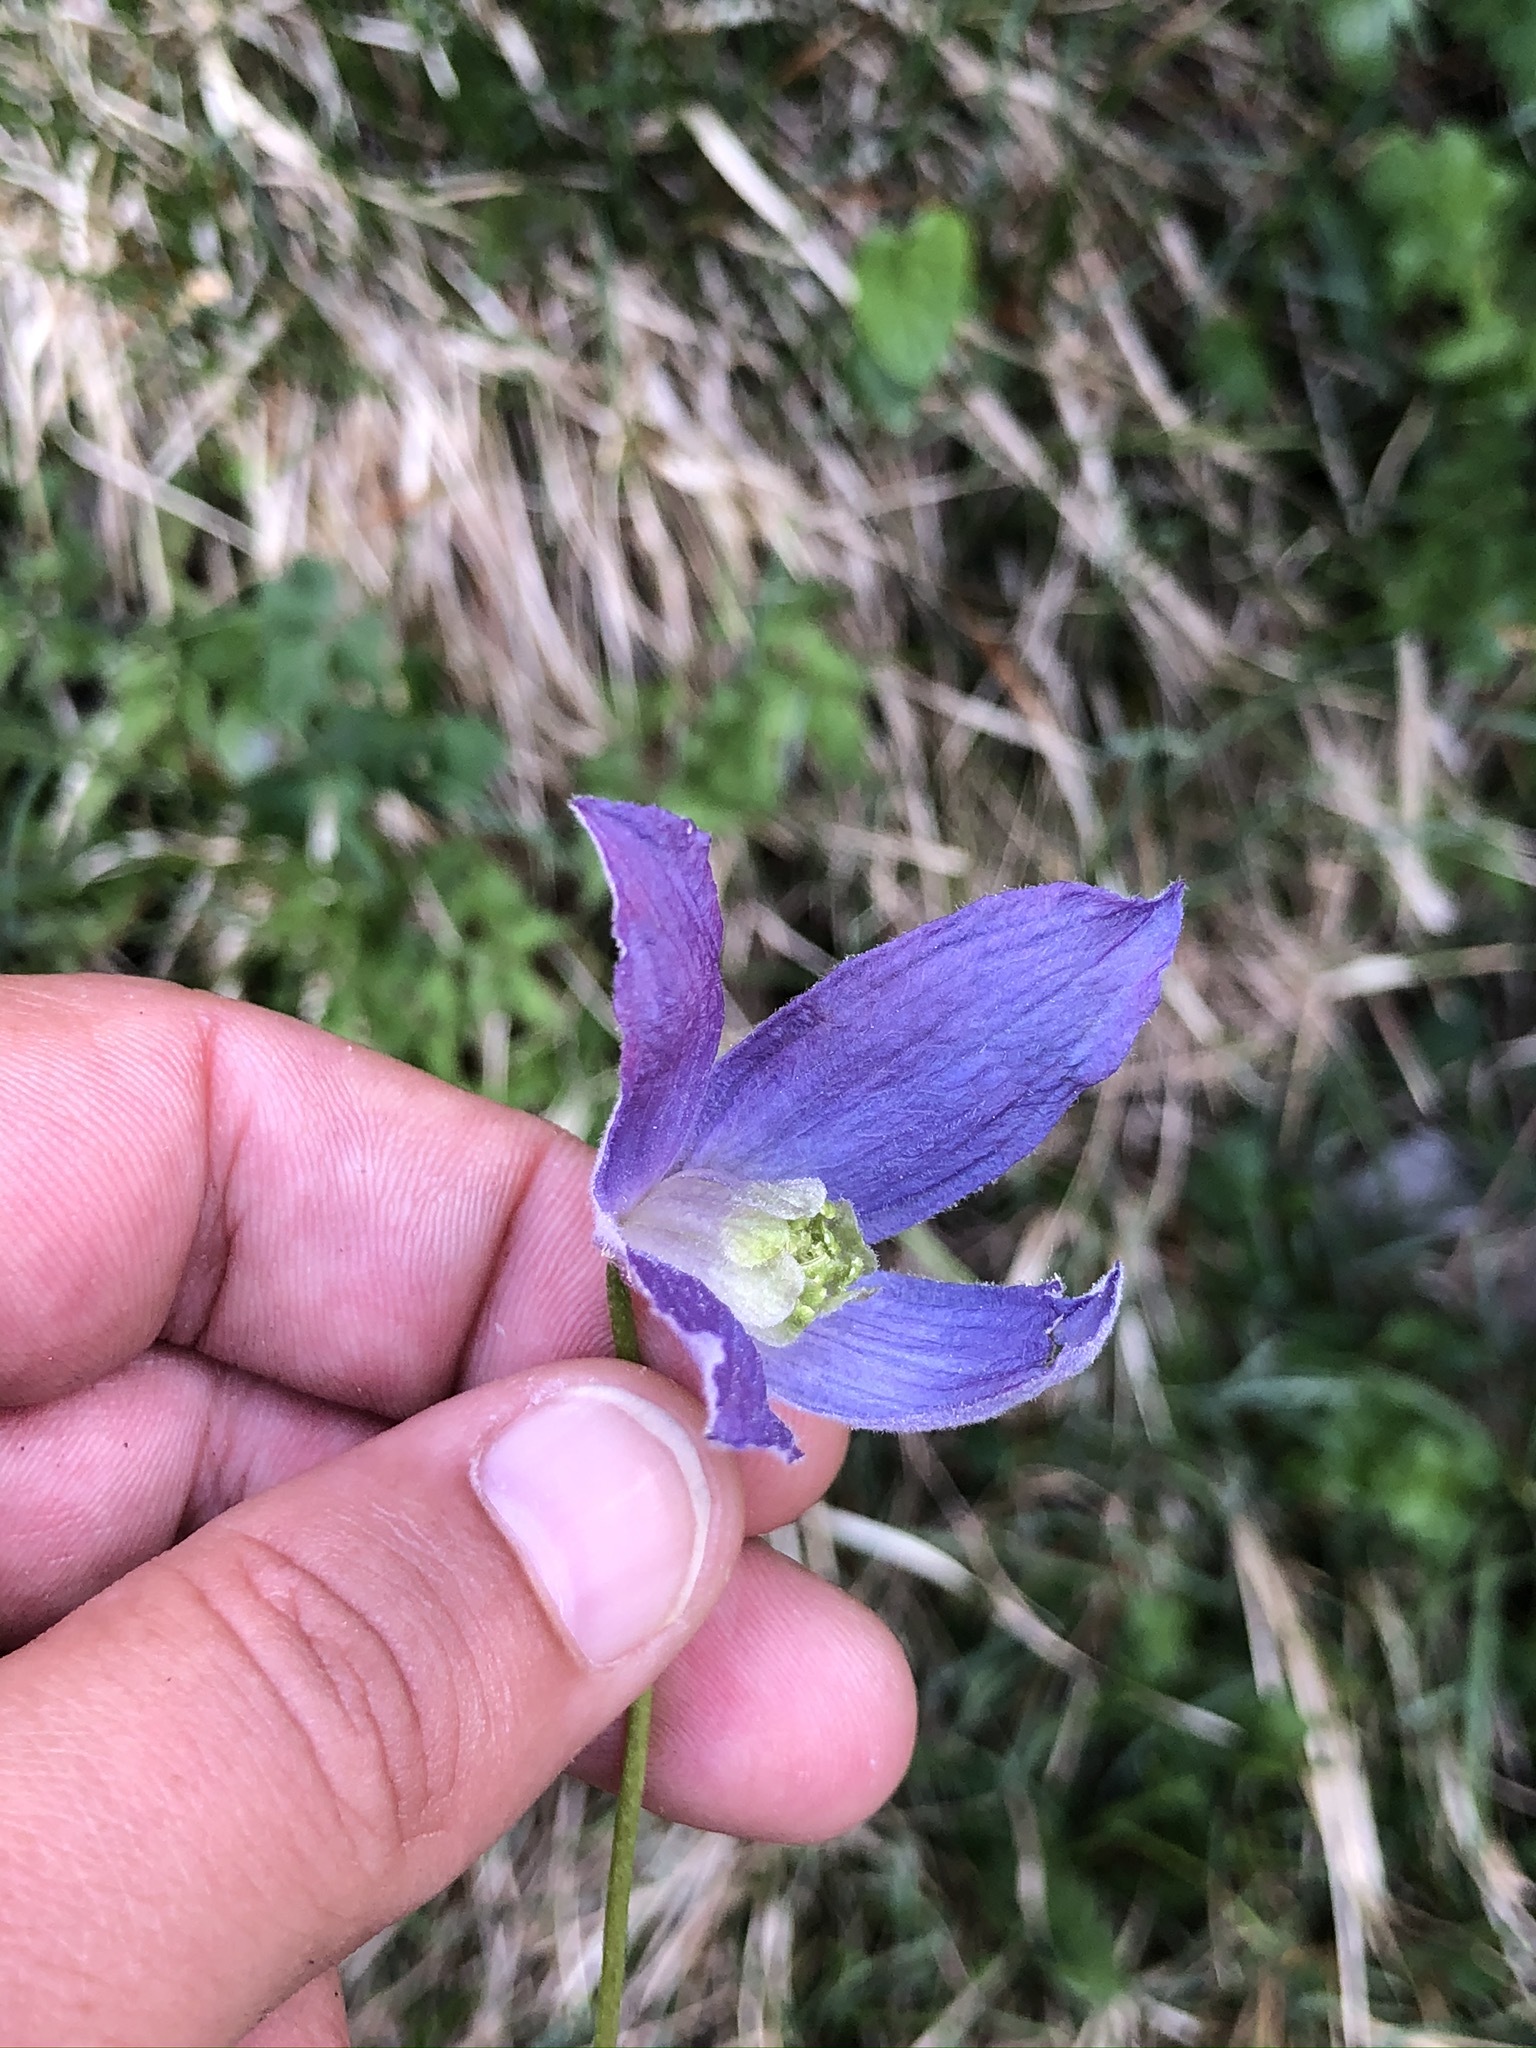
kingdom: Plantae
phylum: Tracheophyta
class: Magnoliopsida
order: Ranunculales
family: Ranunculaceae
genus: Clematis
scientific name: Clematis alpina
